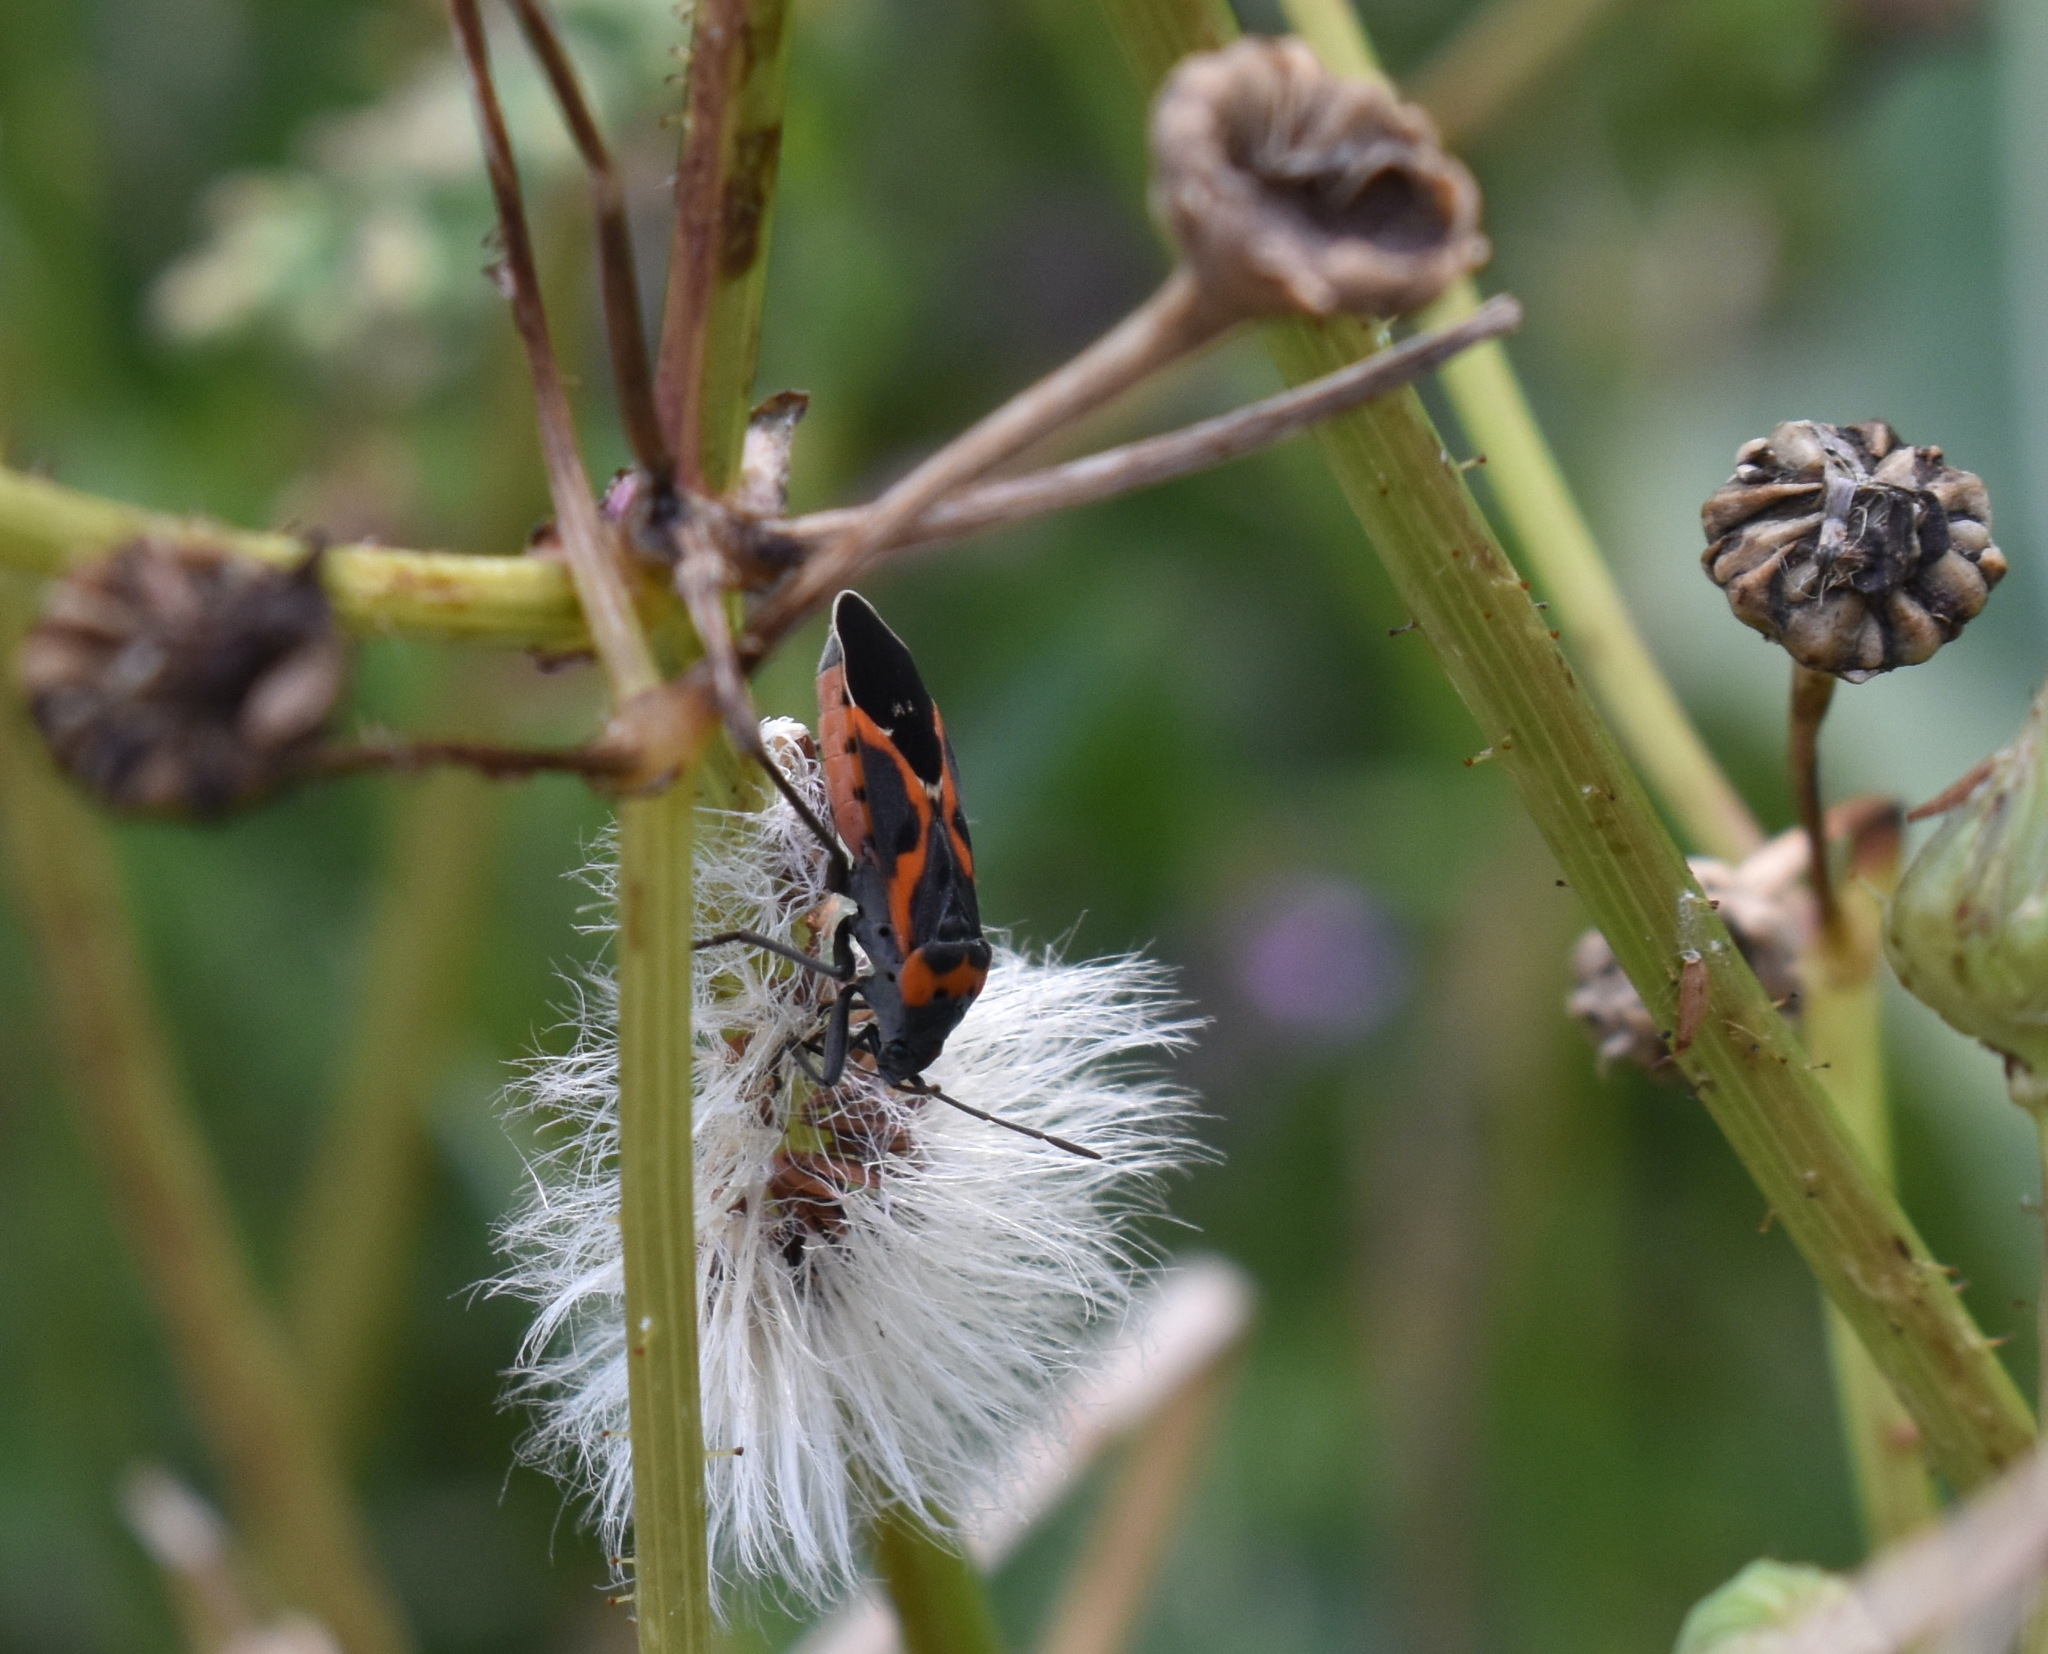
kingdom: Animalia
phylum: Arthropoda
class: Insecta
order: Hemiptera
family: Lygaeidae
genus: Lygaeus
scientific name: Lygaeus kalmii
